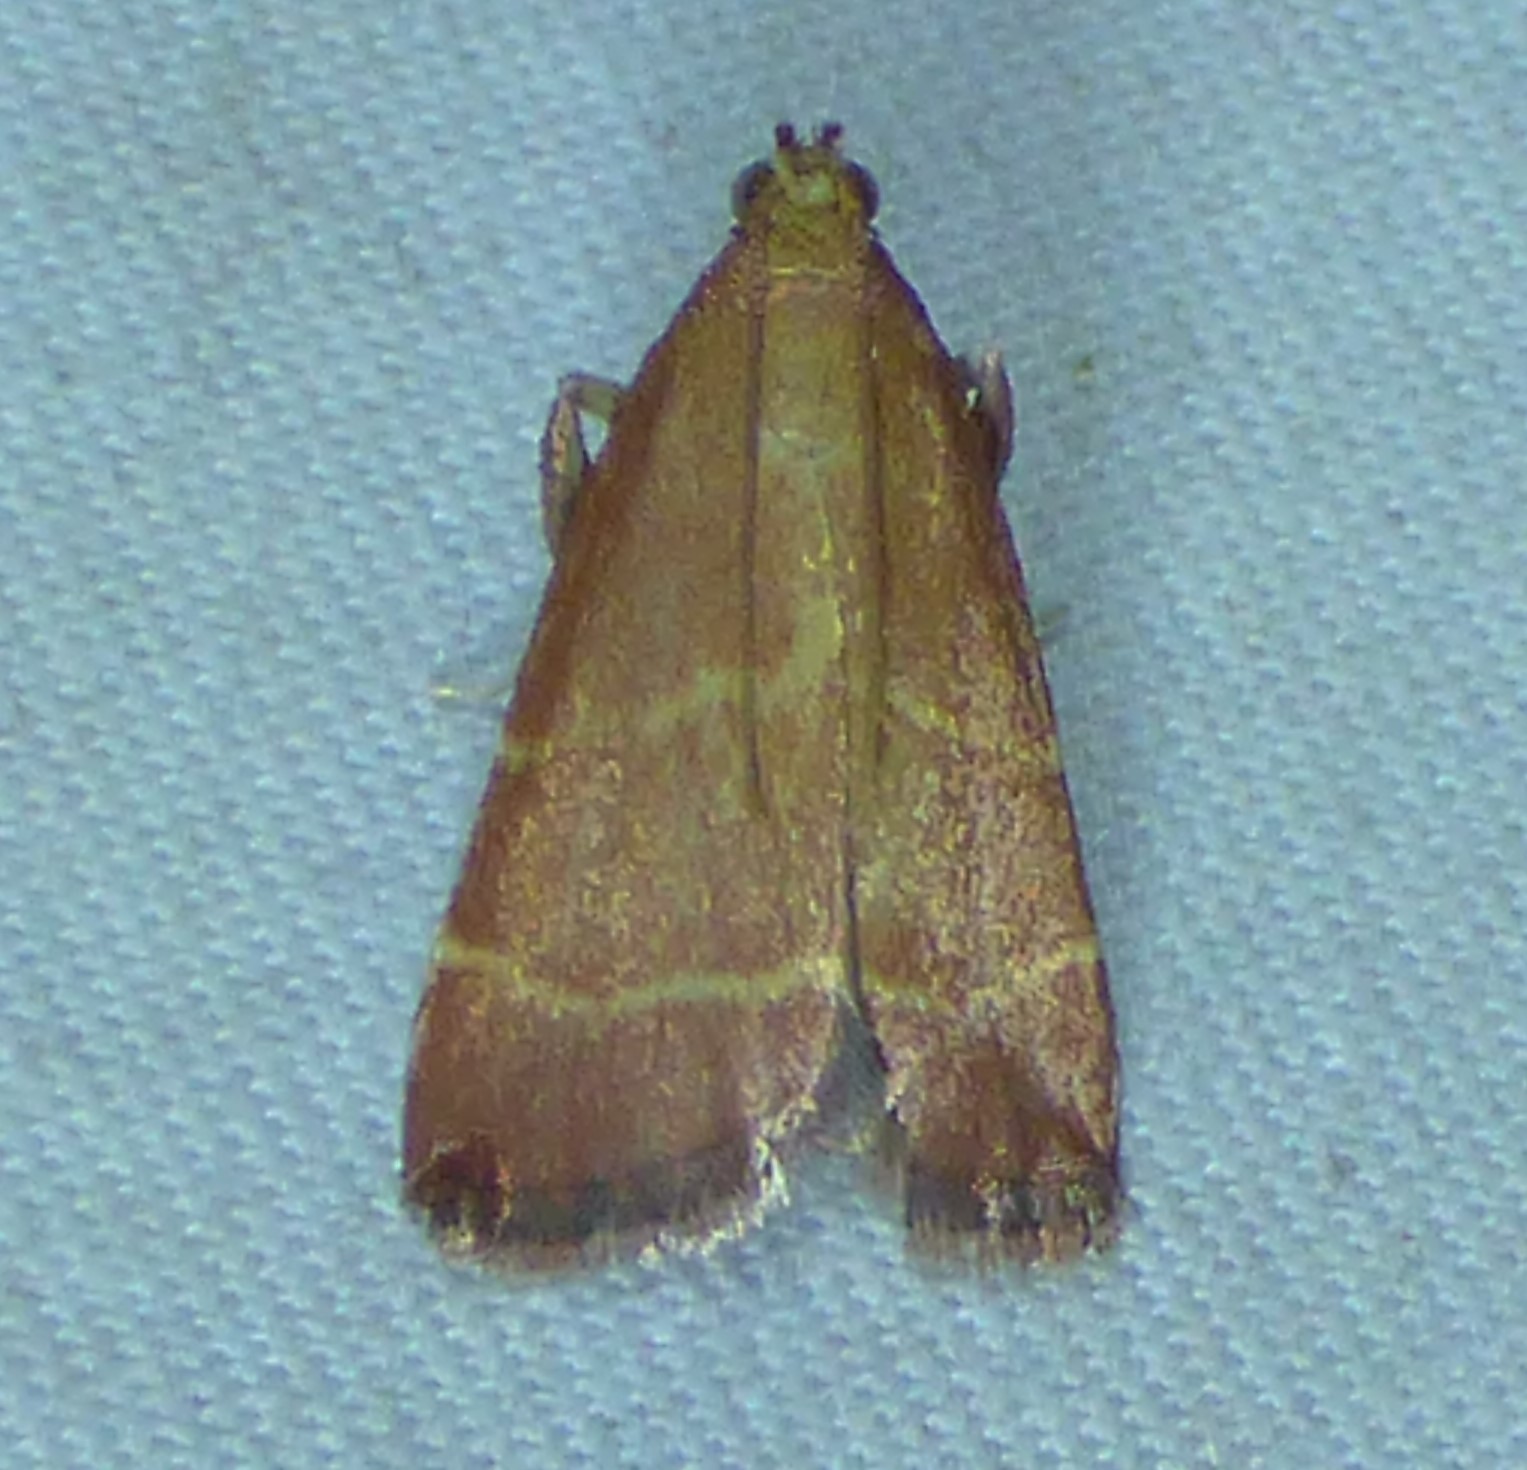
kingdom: Animalia
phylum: Arthropoda
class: Insecta
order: Lepidoptera
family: Pyralidae
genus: Arta
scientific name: Arta statalis
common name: Posturing arta moth
